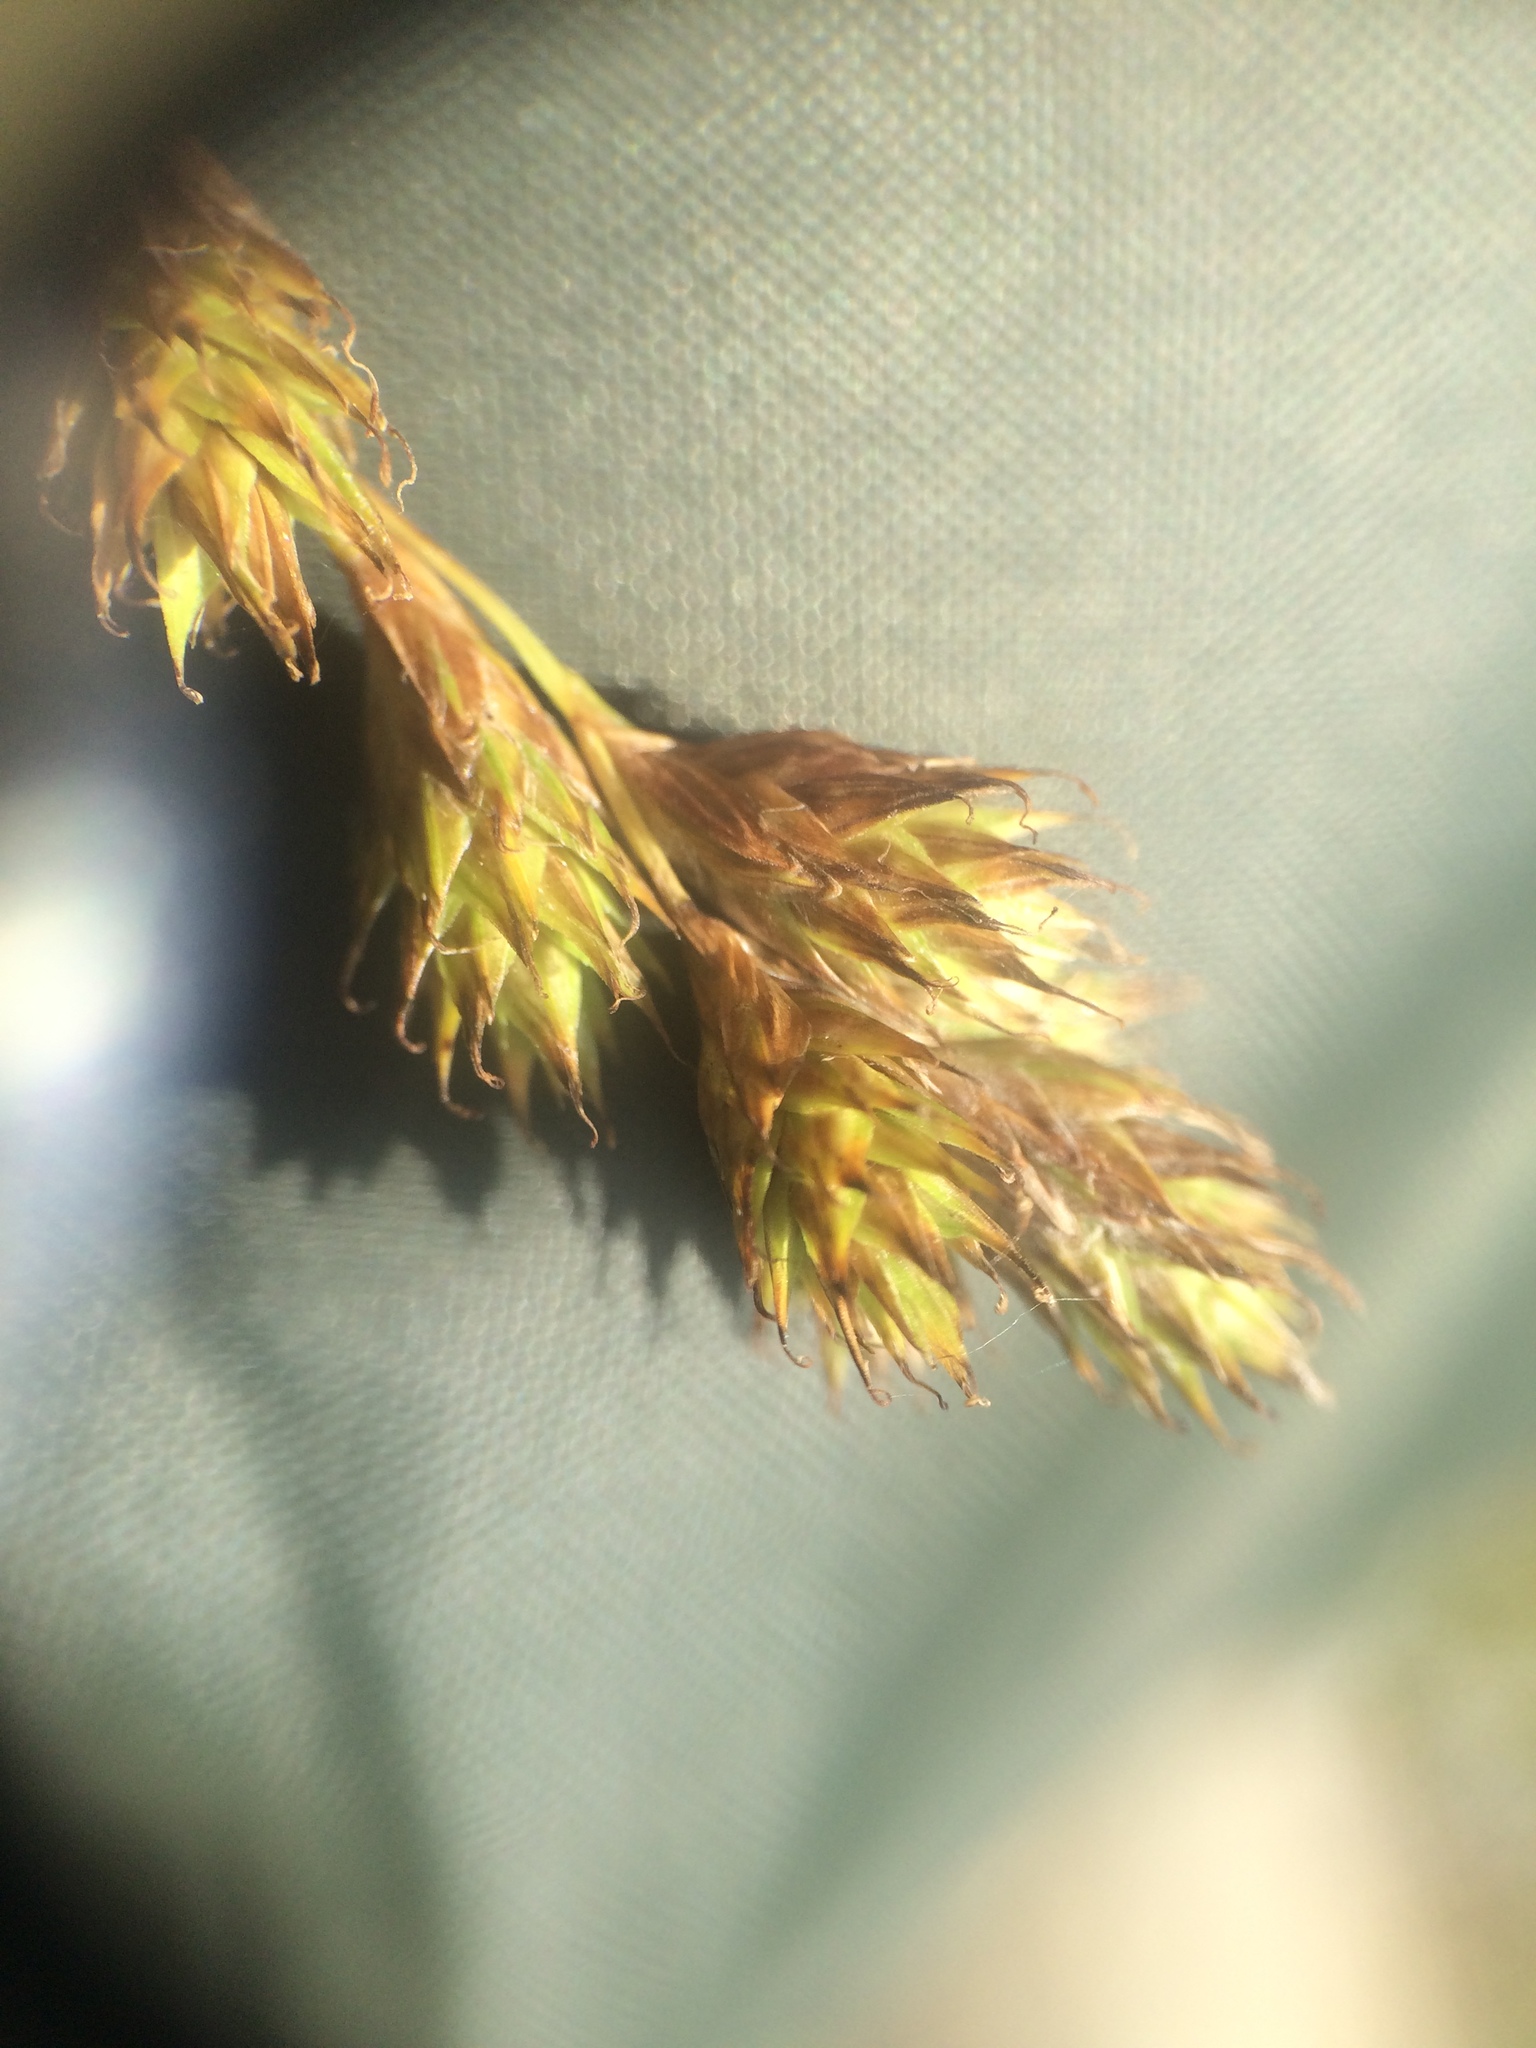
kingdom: Plantae
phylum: Tracheophyta
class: Liliopsida
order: Poales
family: Cyperaceae
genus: Carex
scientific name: Carex foenea
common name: Bronze sedge
